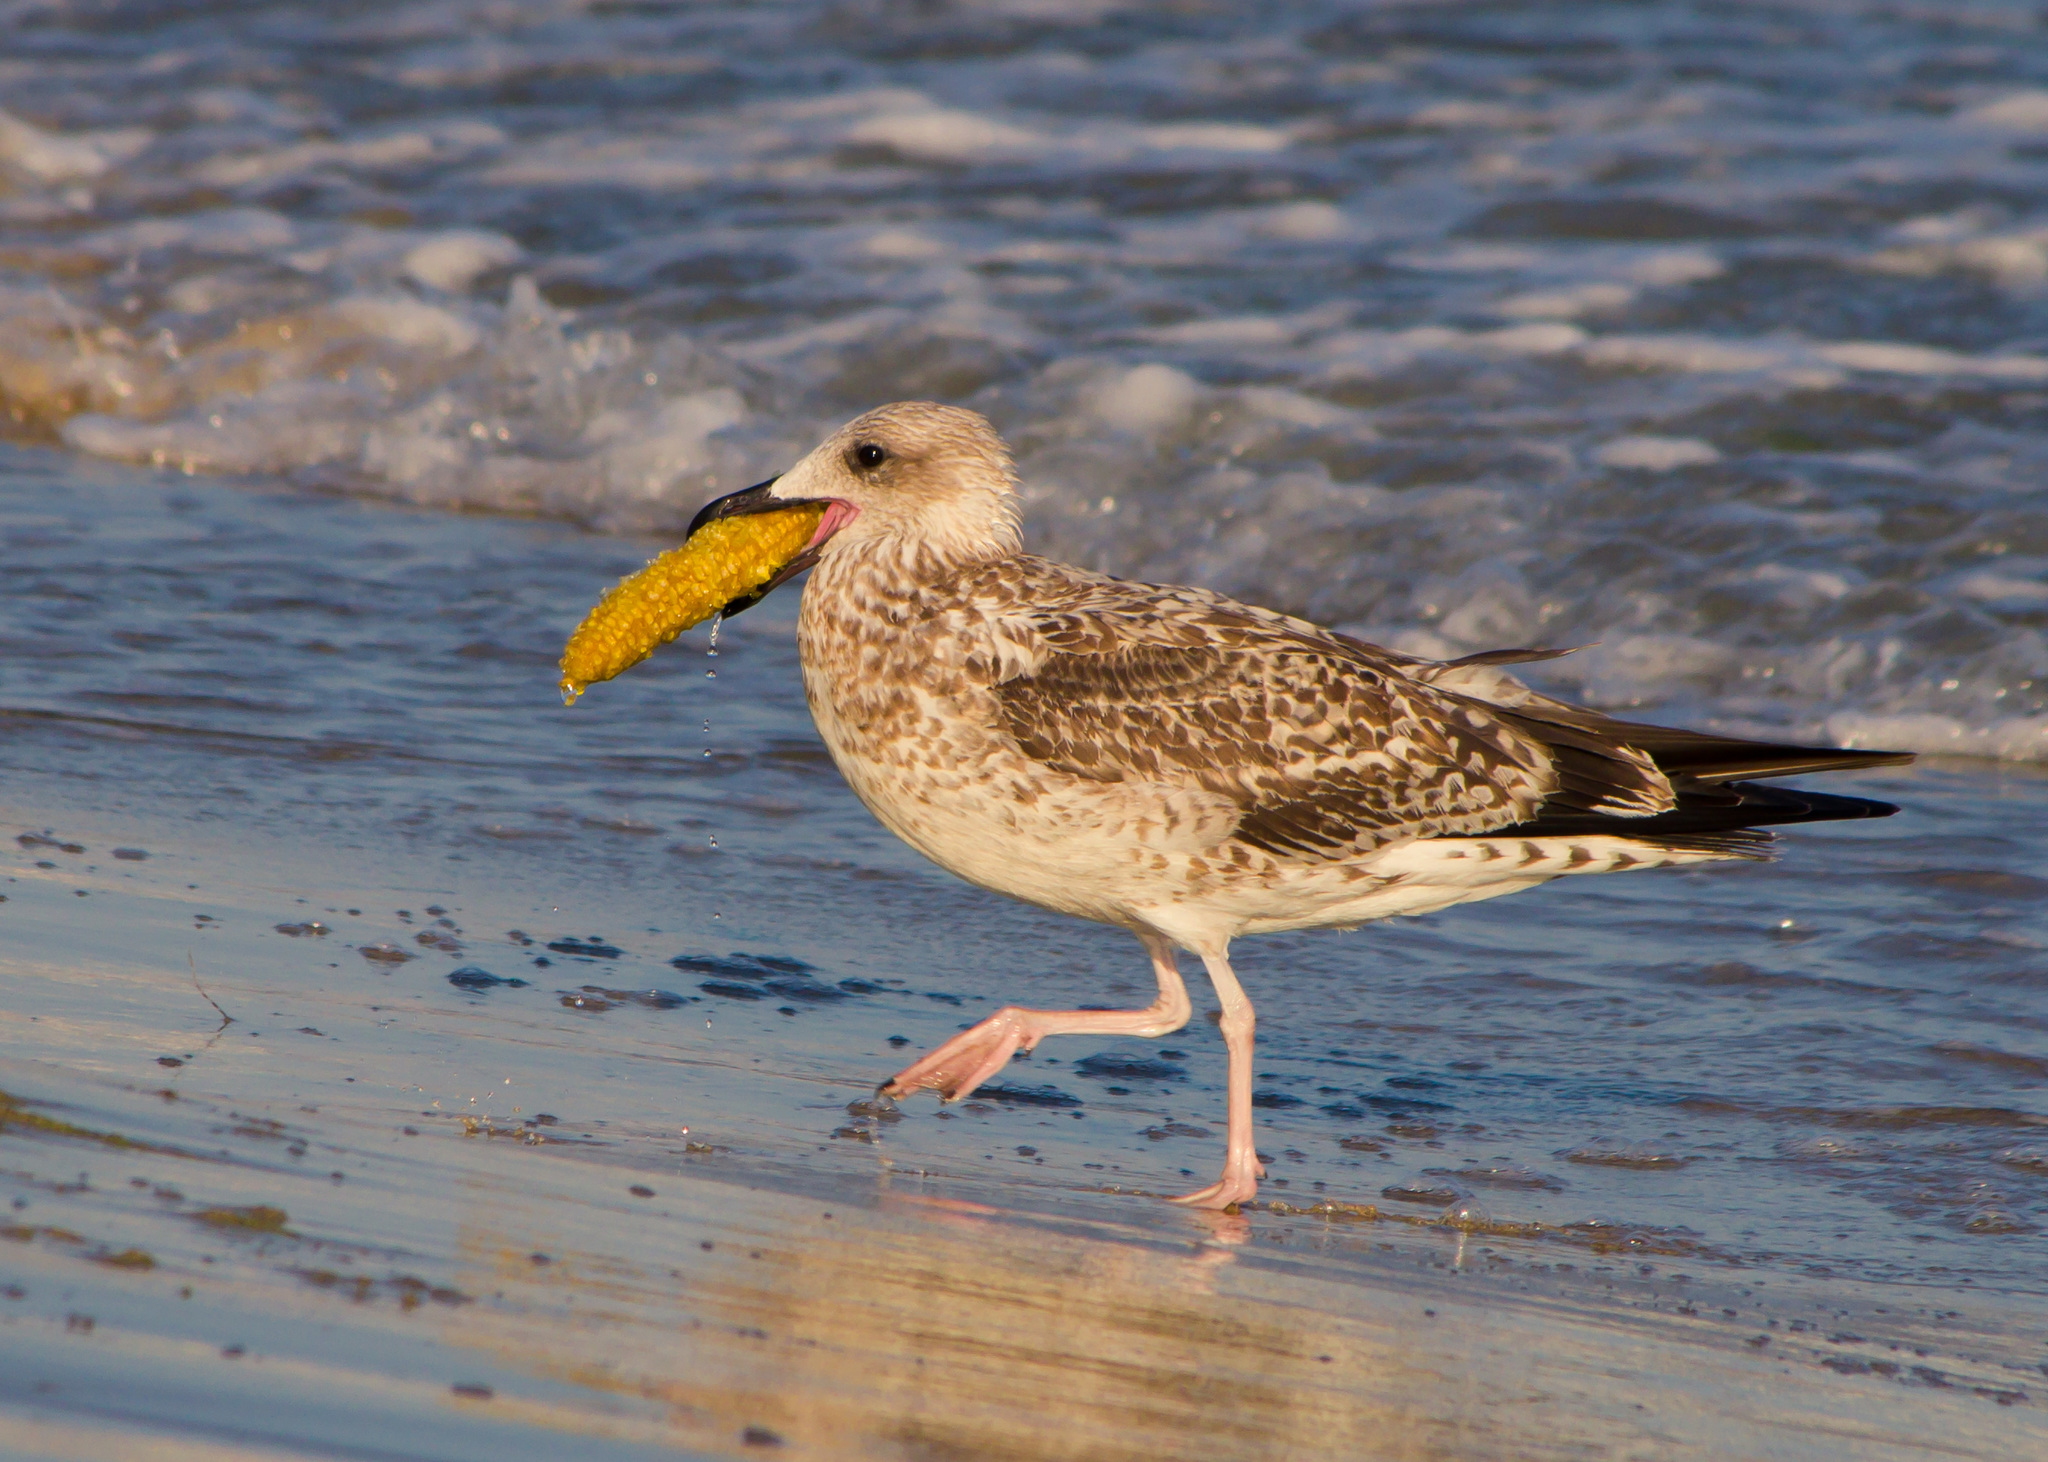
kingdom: Animalia
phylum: Chordata
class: Aves
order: Charadriiformes
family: Laridae
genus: Larus
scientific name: Larus michahellis
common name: Yellow-legged gull
